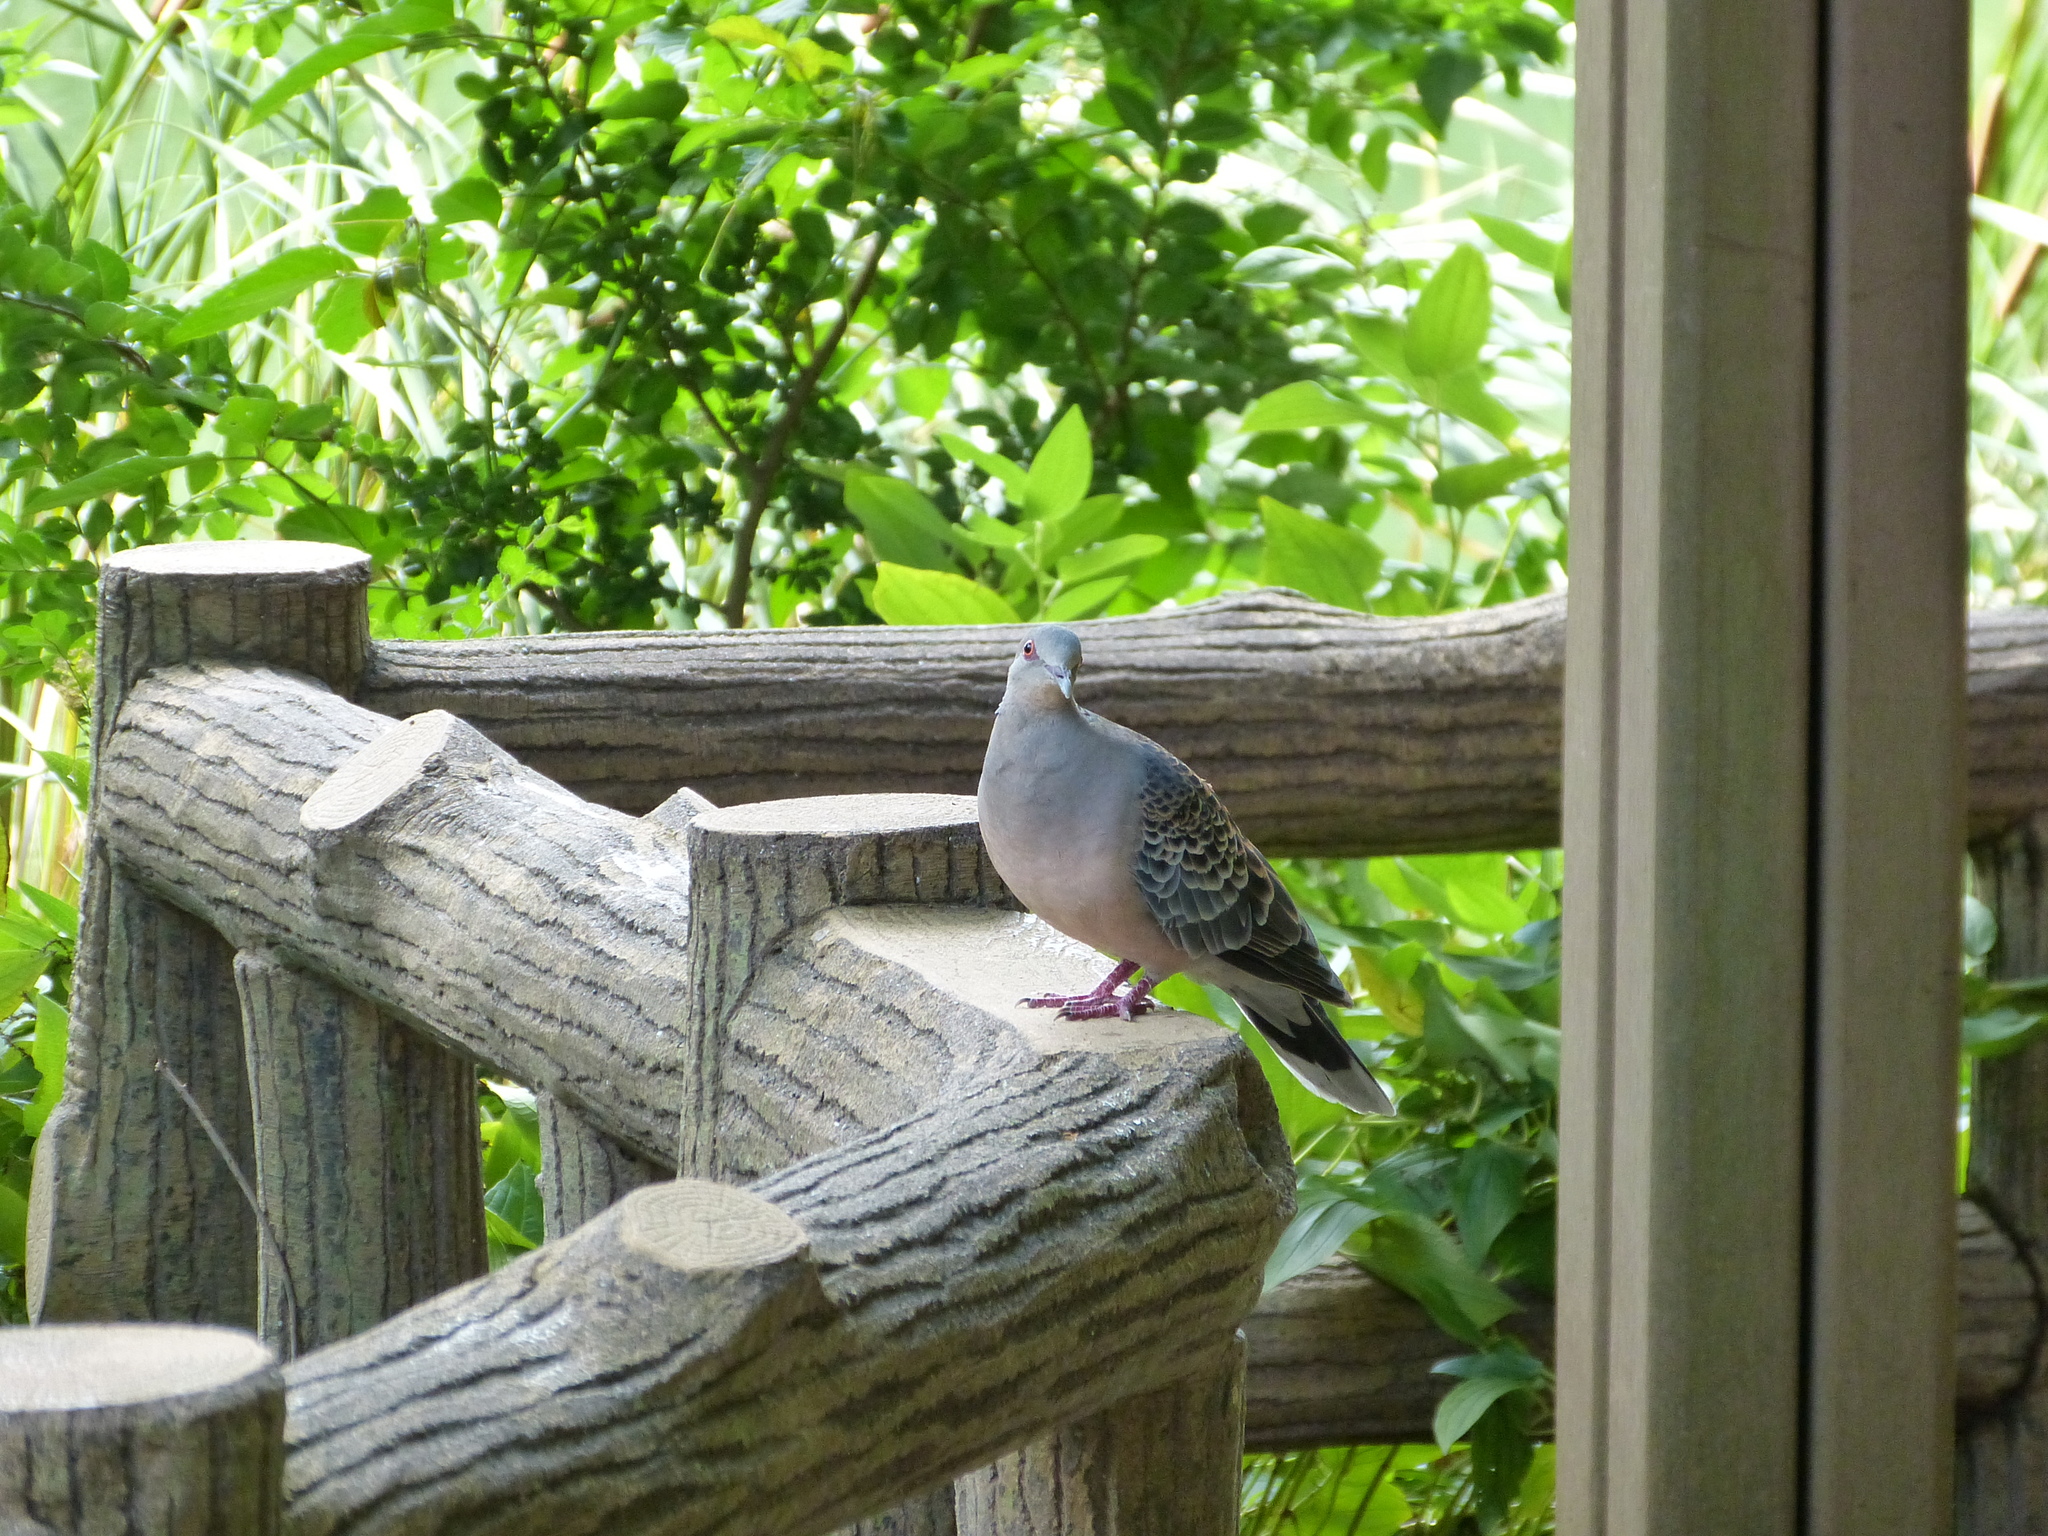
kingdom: Animalia
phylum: Chordata
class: Aves
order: Columbiformes
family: Columbidae
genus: Streptopelia
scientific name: Streptopelia orientalis
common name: Oriental turtle dove
